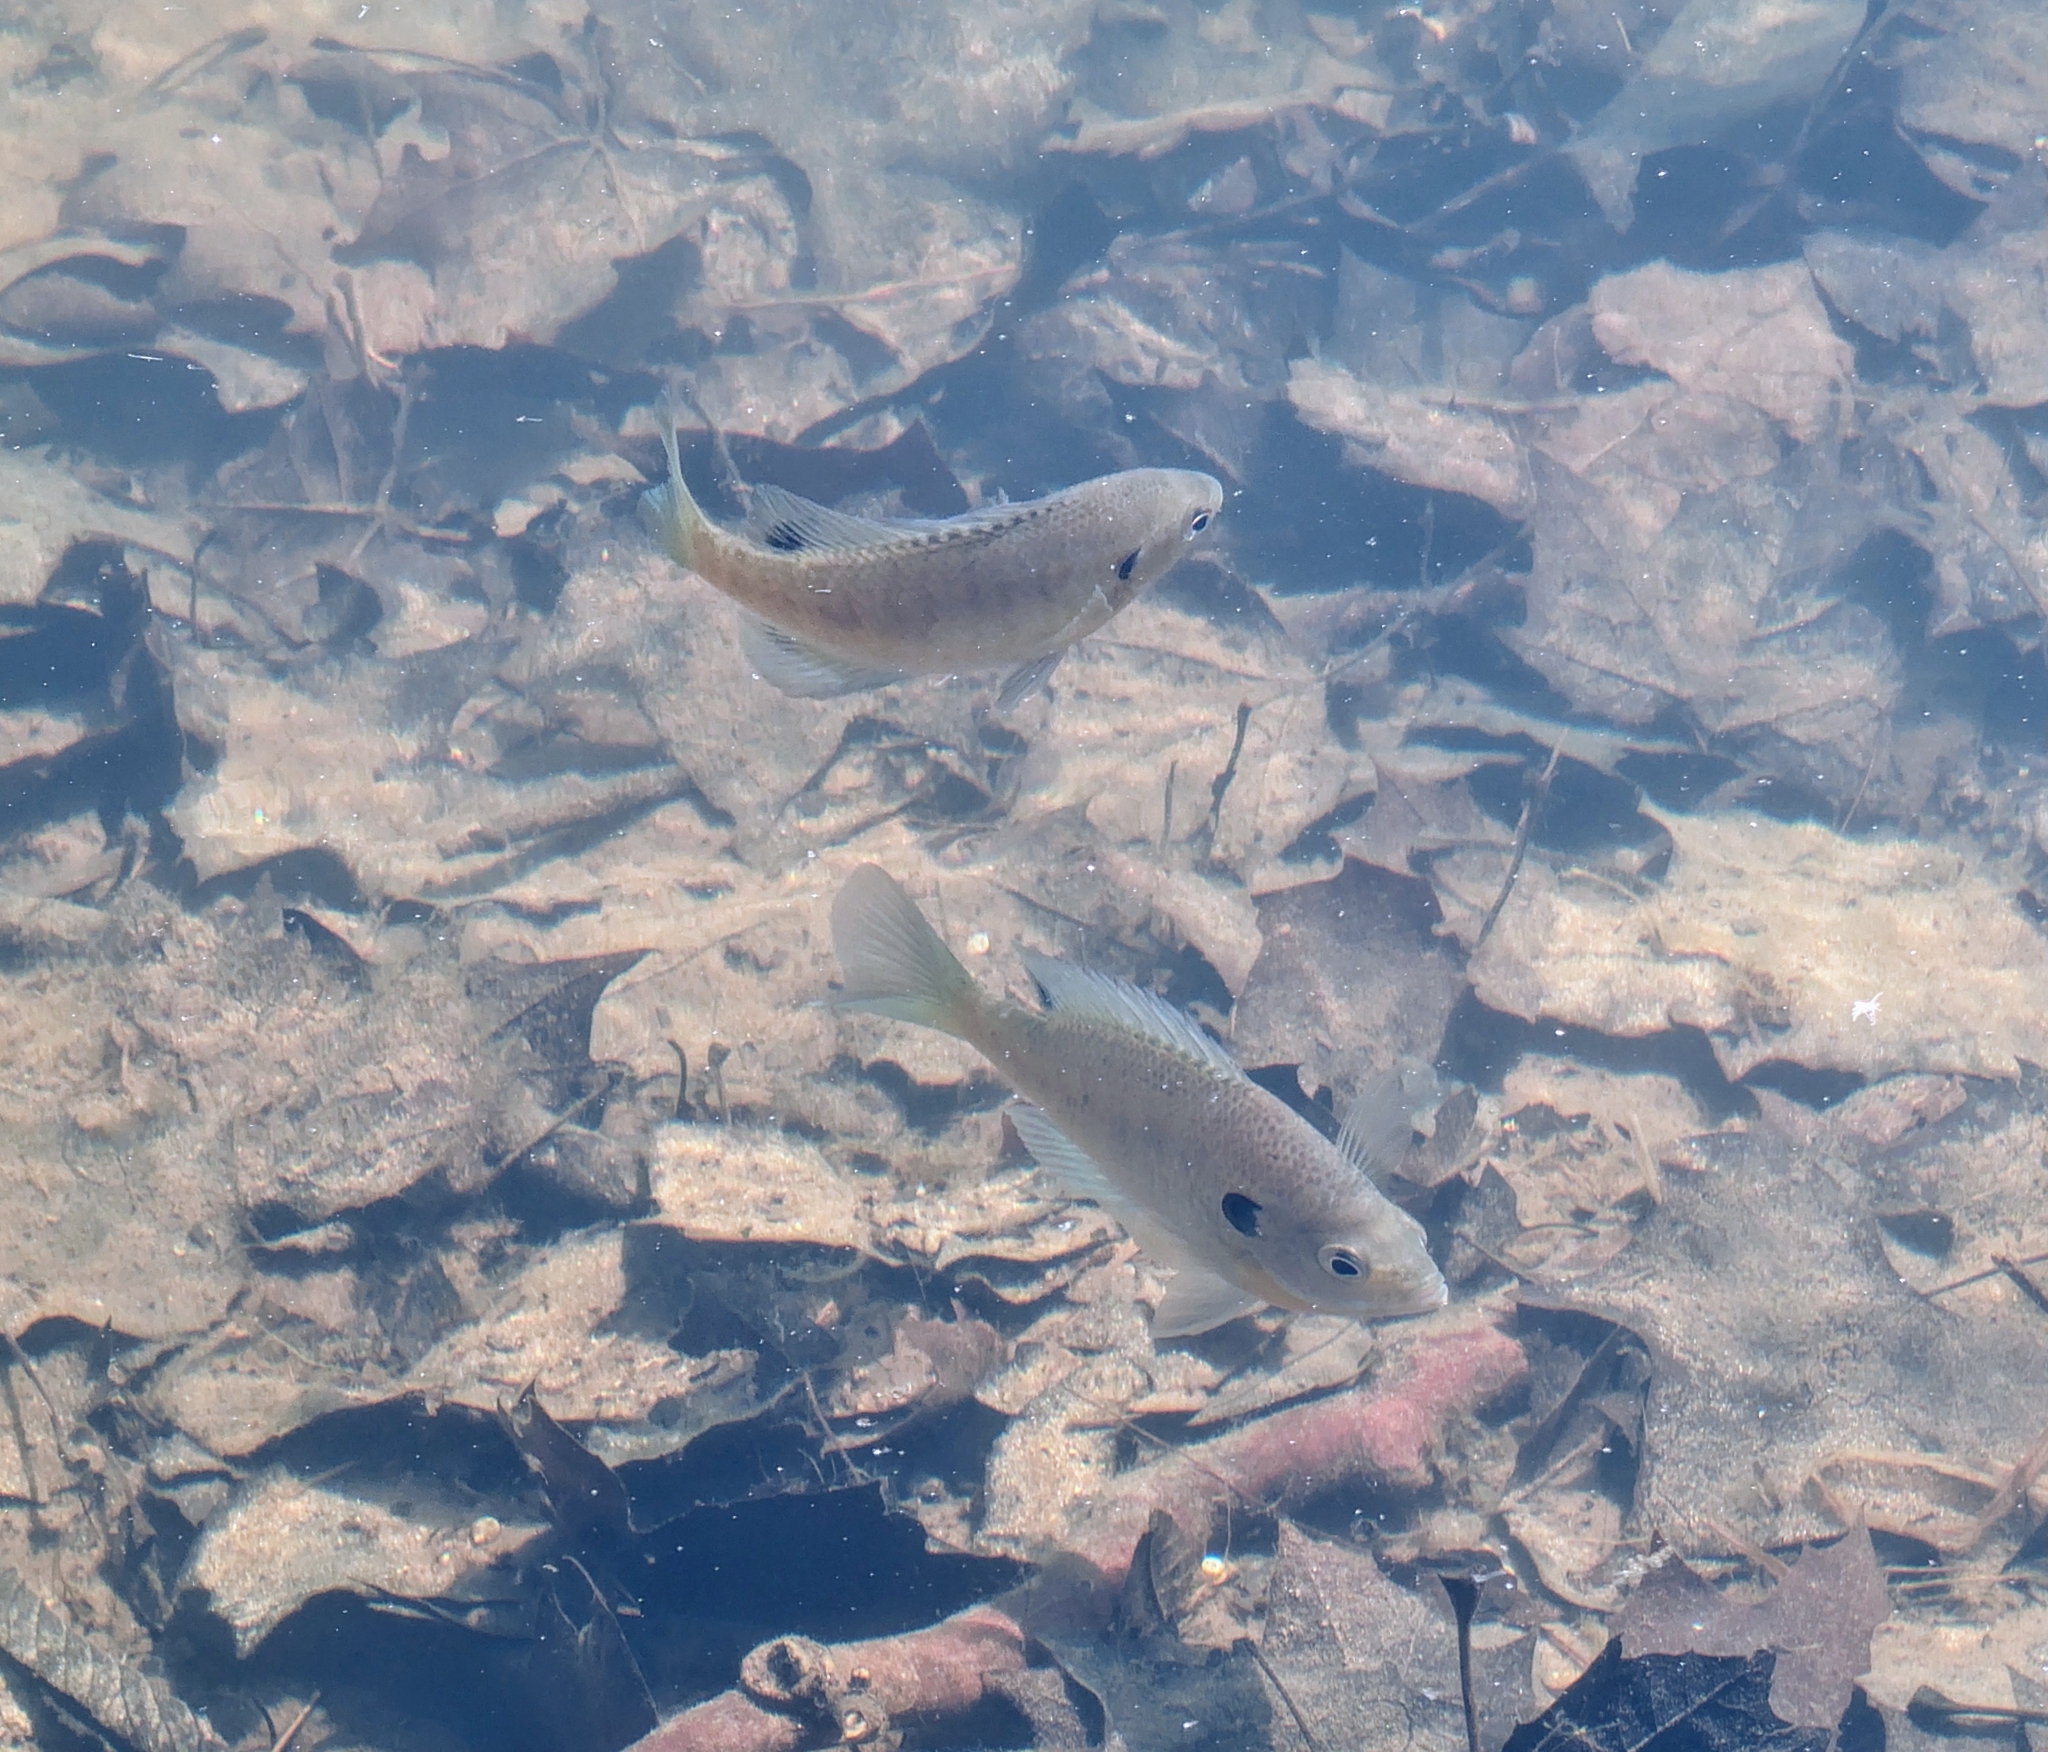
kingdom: Animalia
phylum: Chordata
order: Perciformes
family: Centrarchidae
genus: Lepomis
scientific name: Lepomis macrochirus
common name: Bluegill
